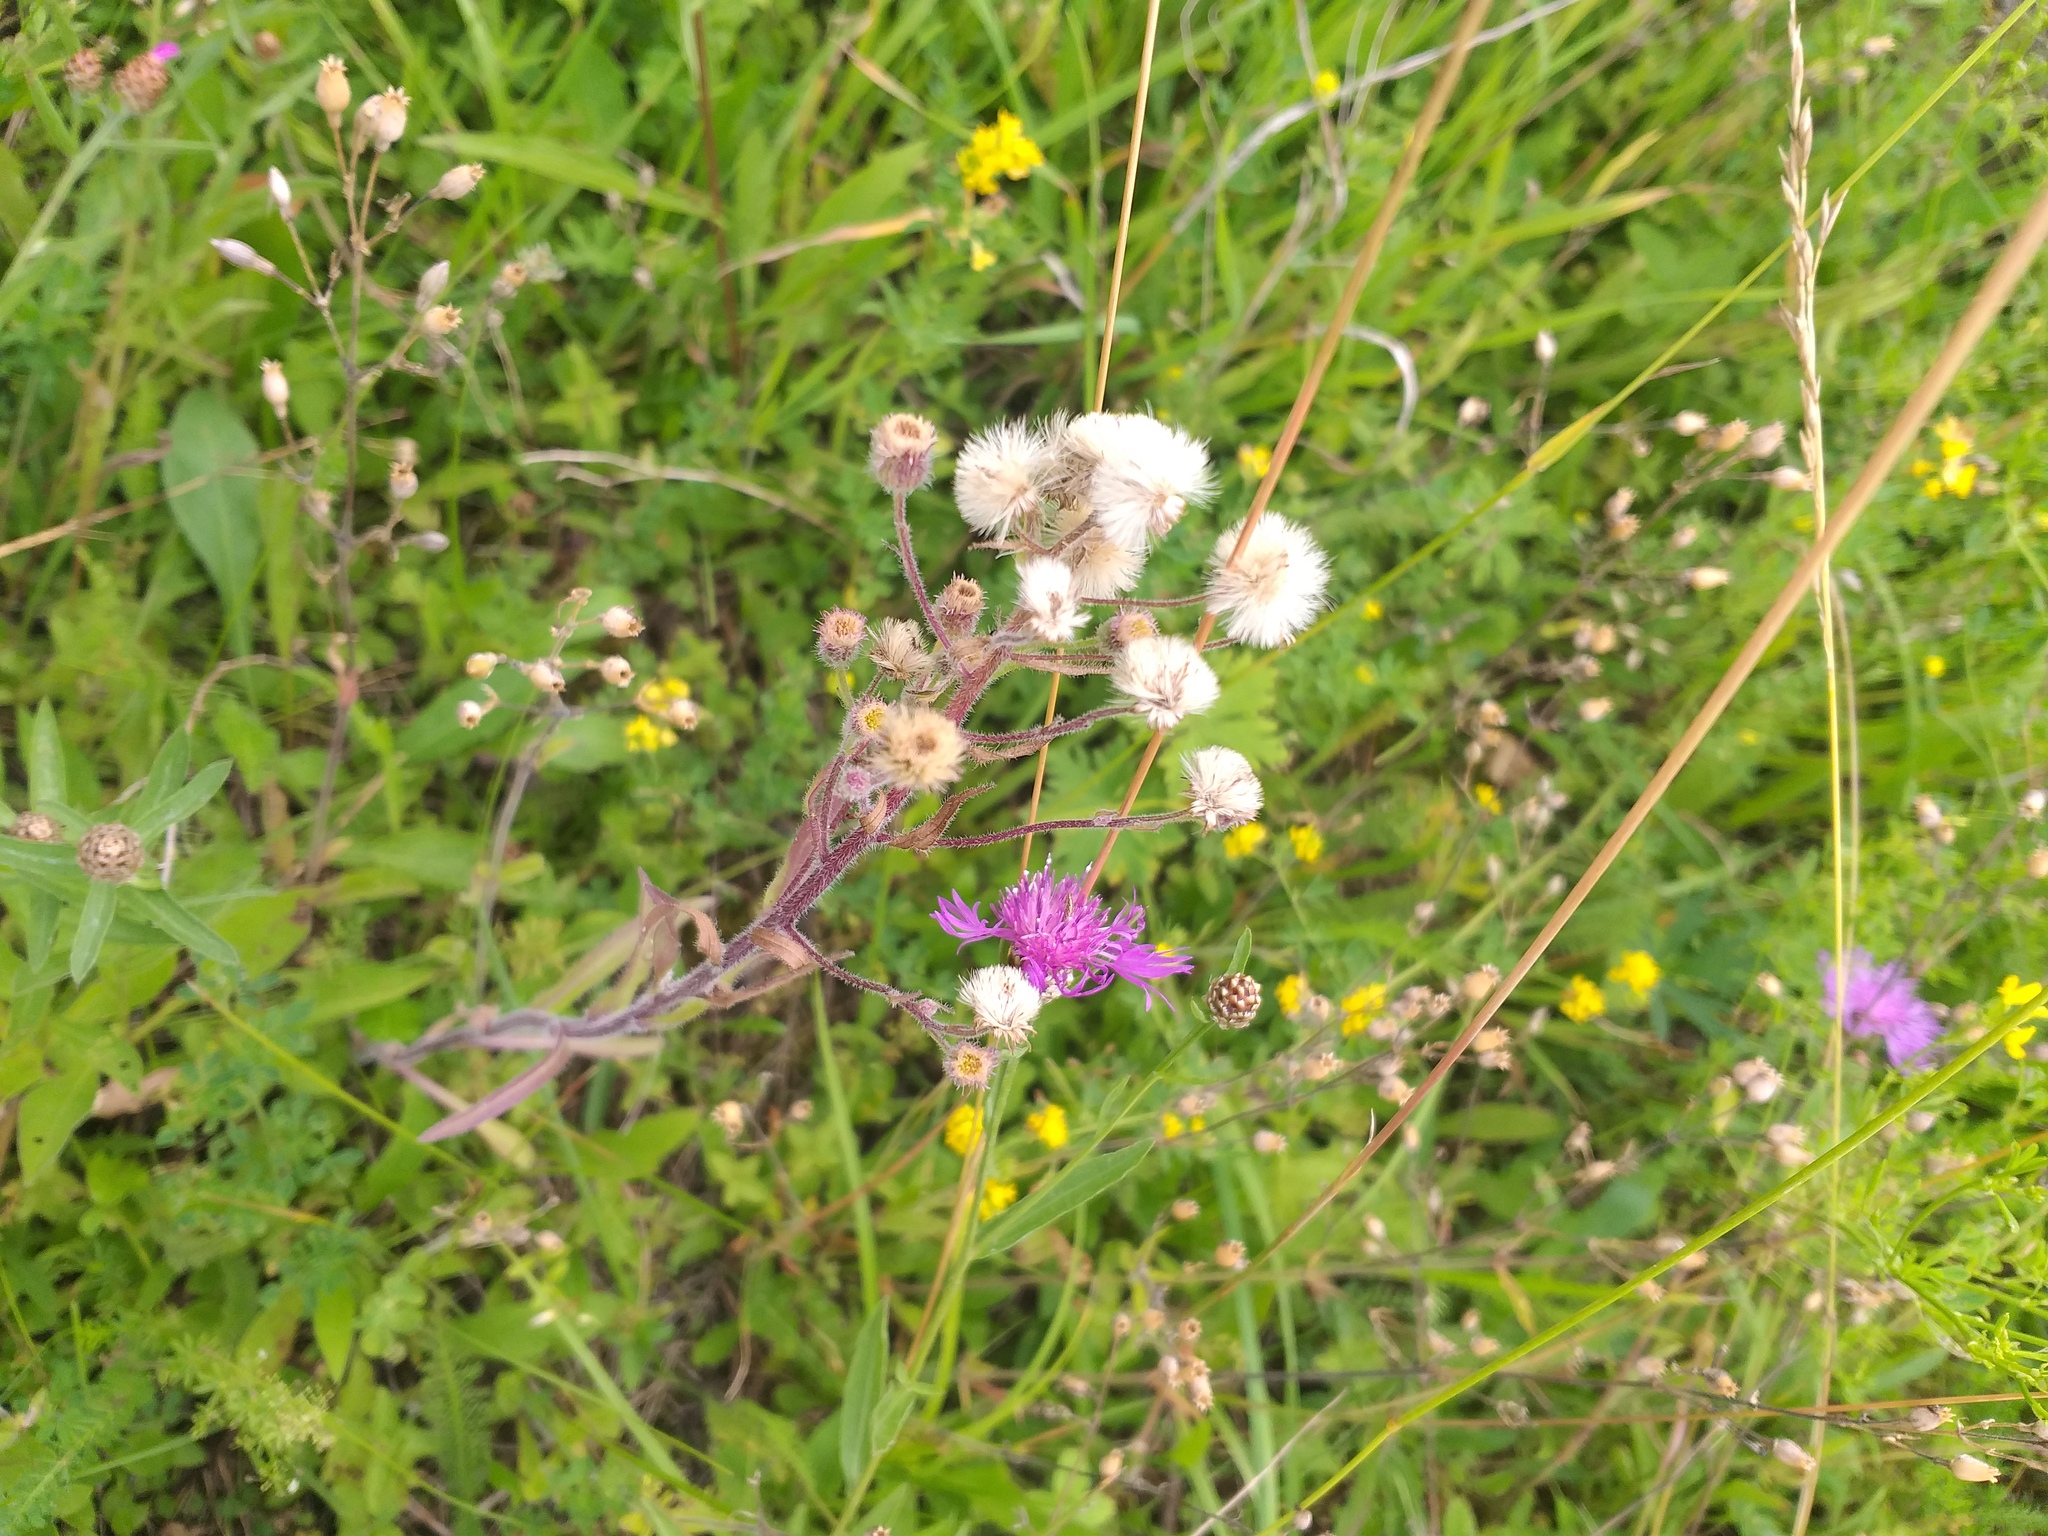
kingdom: Plantae
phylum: Tracheophyta
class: Magnoliopsida
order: Asterales
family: Asteraceae
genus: Erigeron
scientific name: Erigeron acris
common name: Blue fleabane
